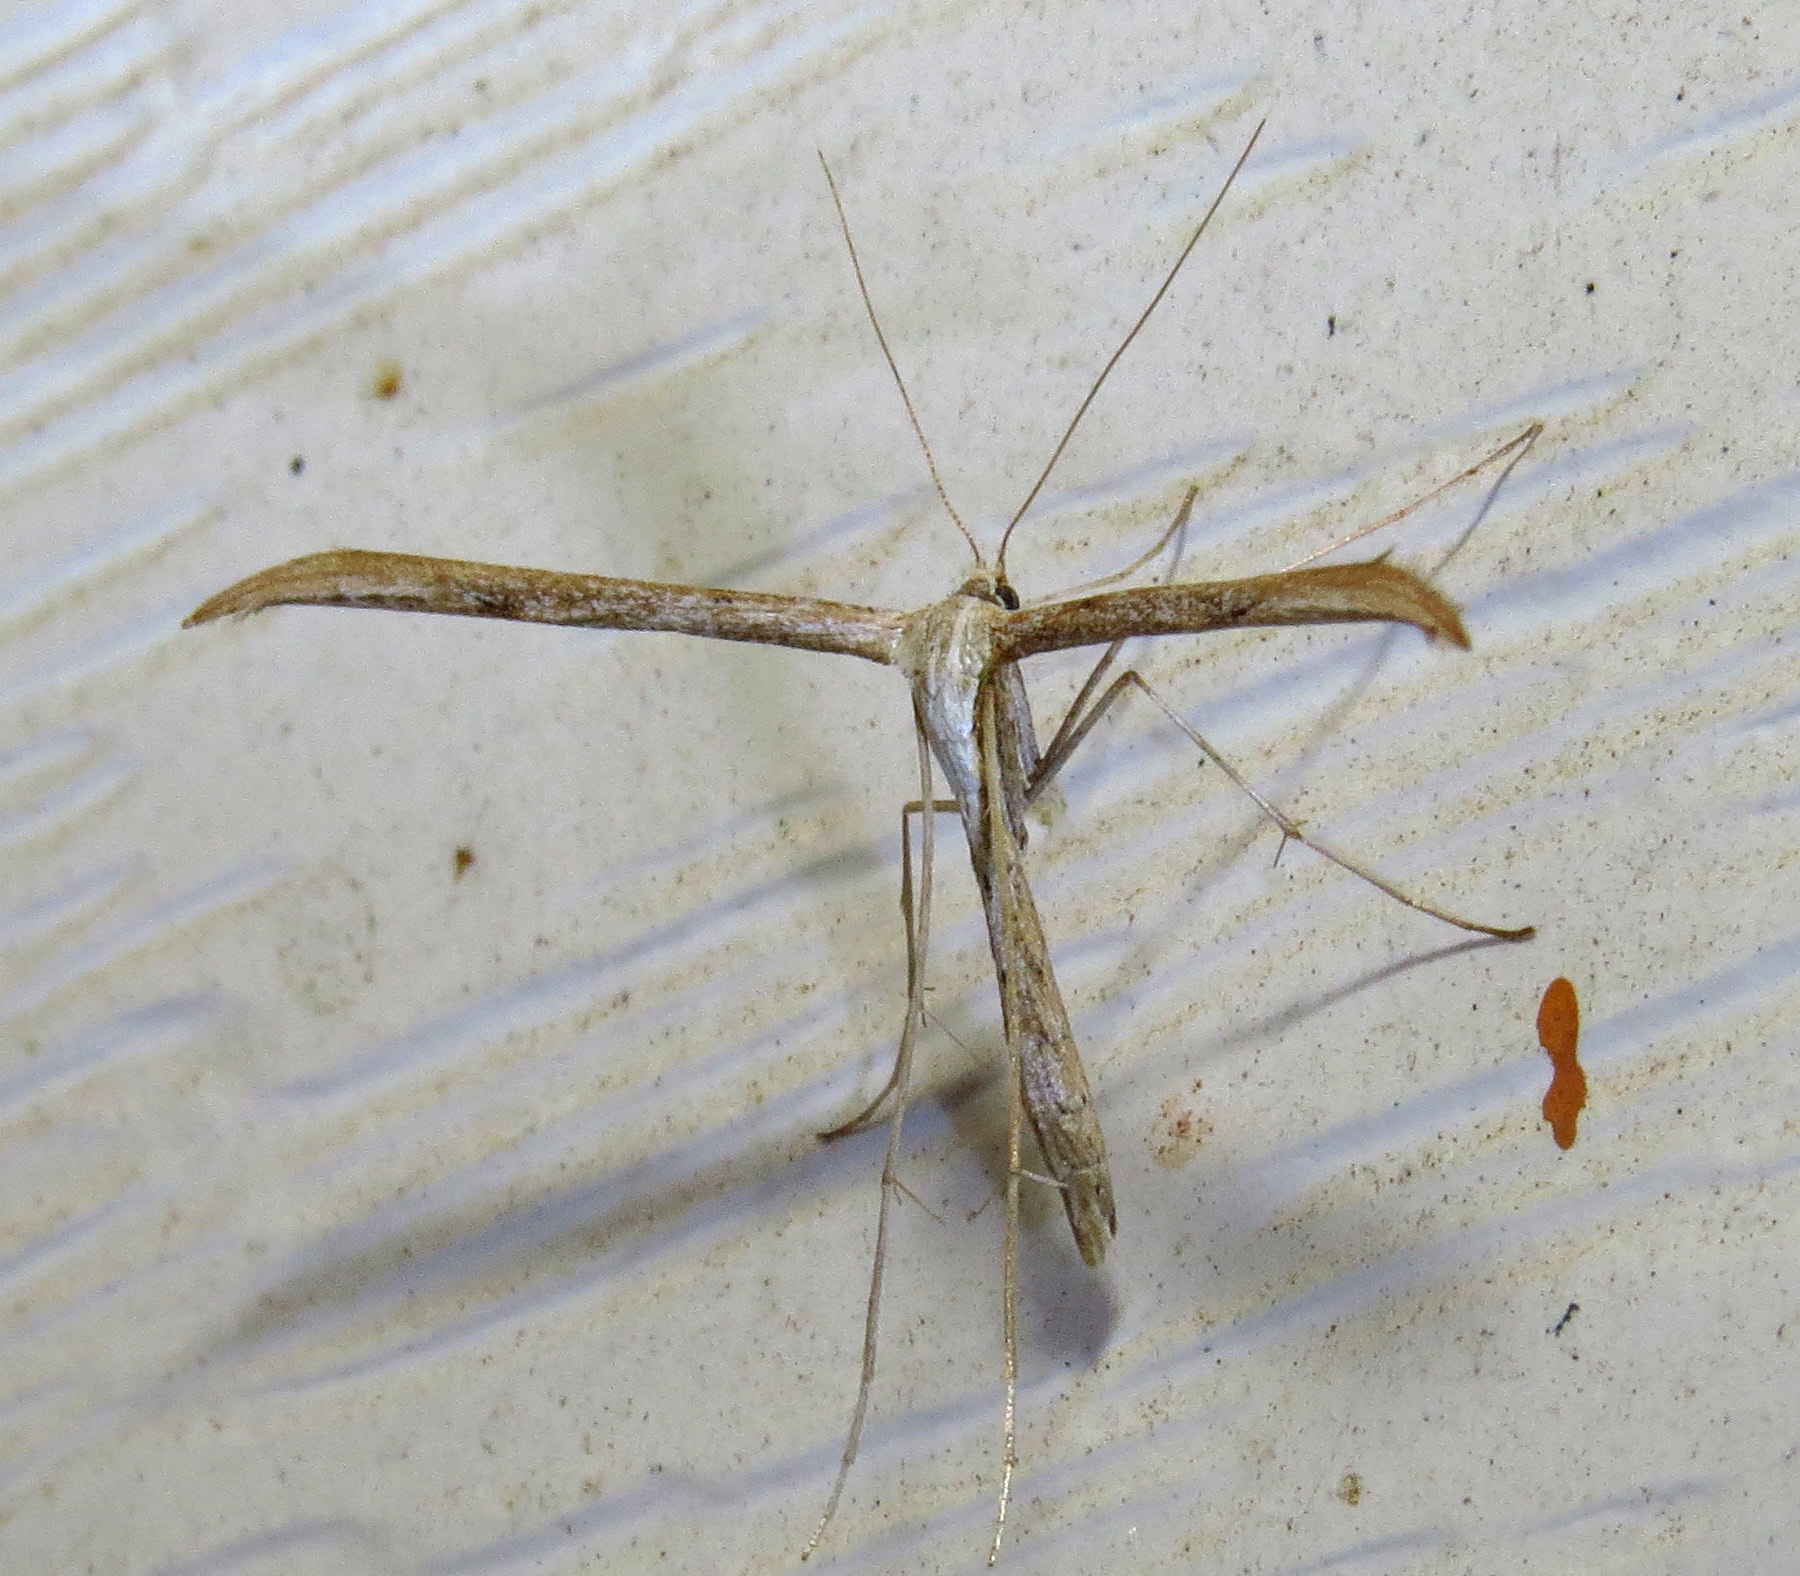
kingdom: Animalia
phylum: Arthropoda
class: Insecta
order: Lepidoptera
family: Pterophoridae
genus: Emmelina
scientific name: Emmelina monodactyla
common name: Common plume
